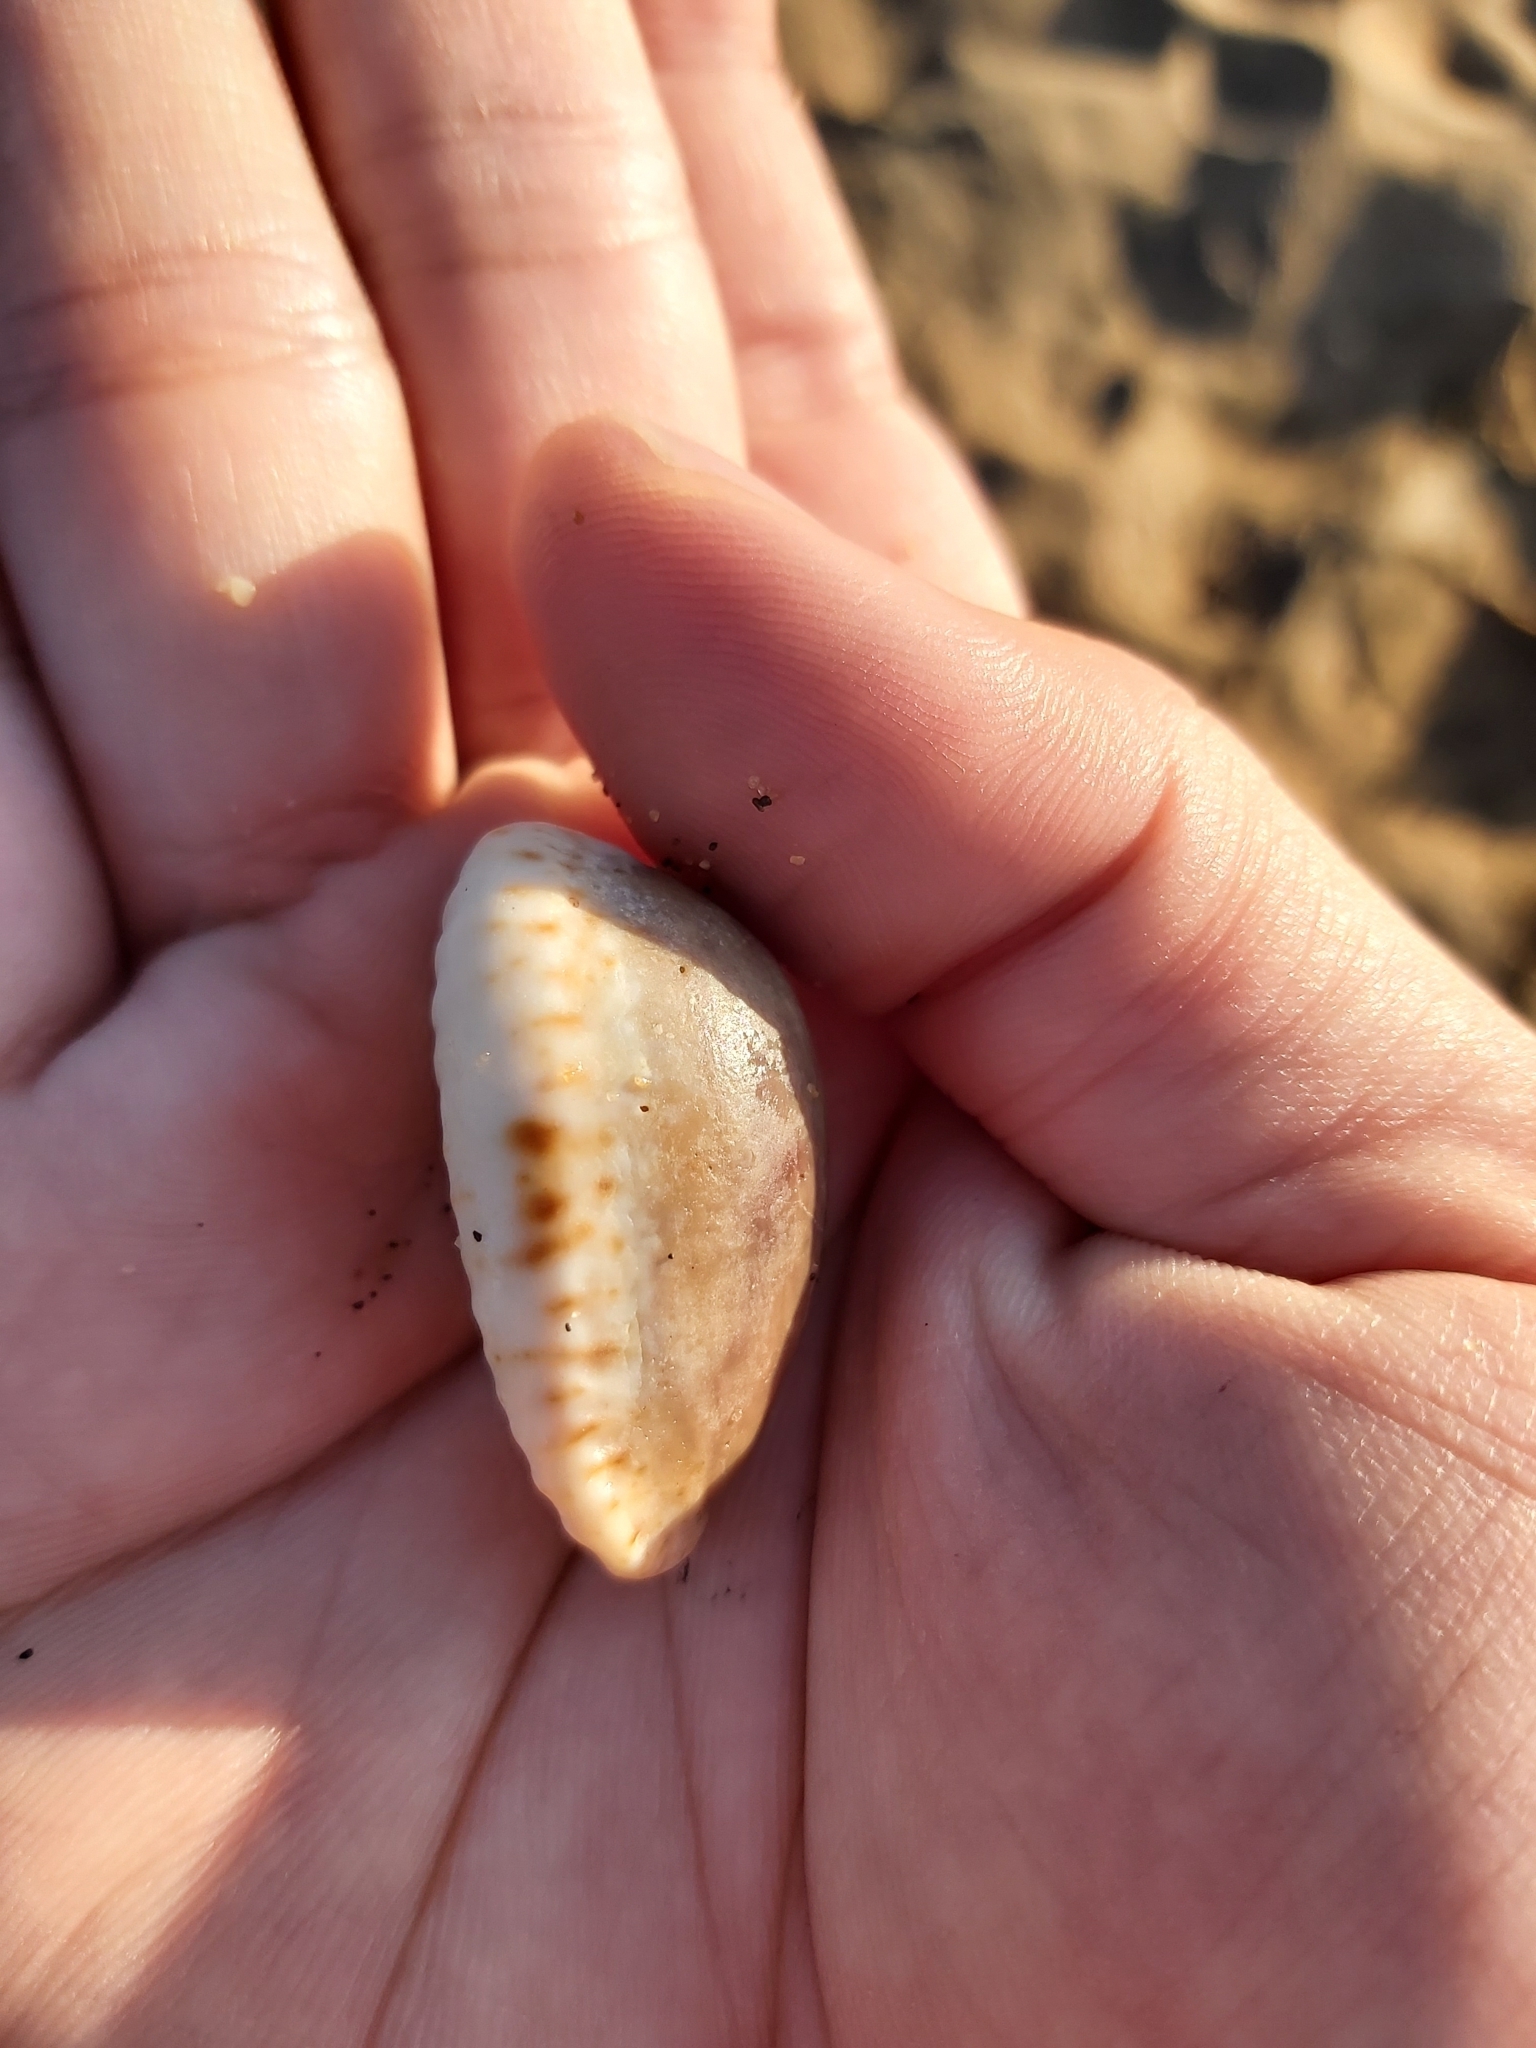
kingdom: Animalia
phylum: Mollusca
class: Gastropoda
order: Littorinimorpha
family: Cypraeidae
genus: Naria
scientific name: Naria erosa
